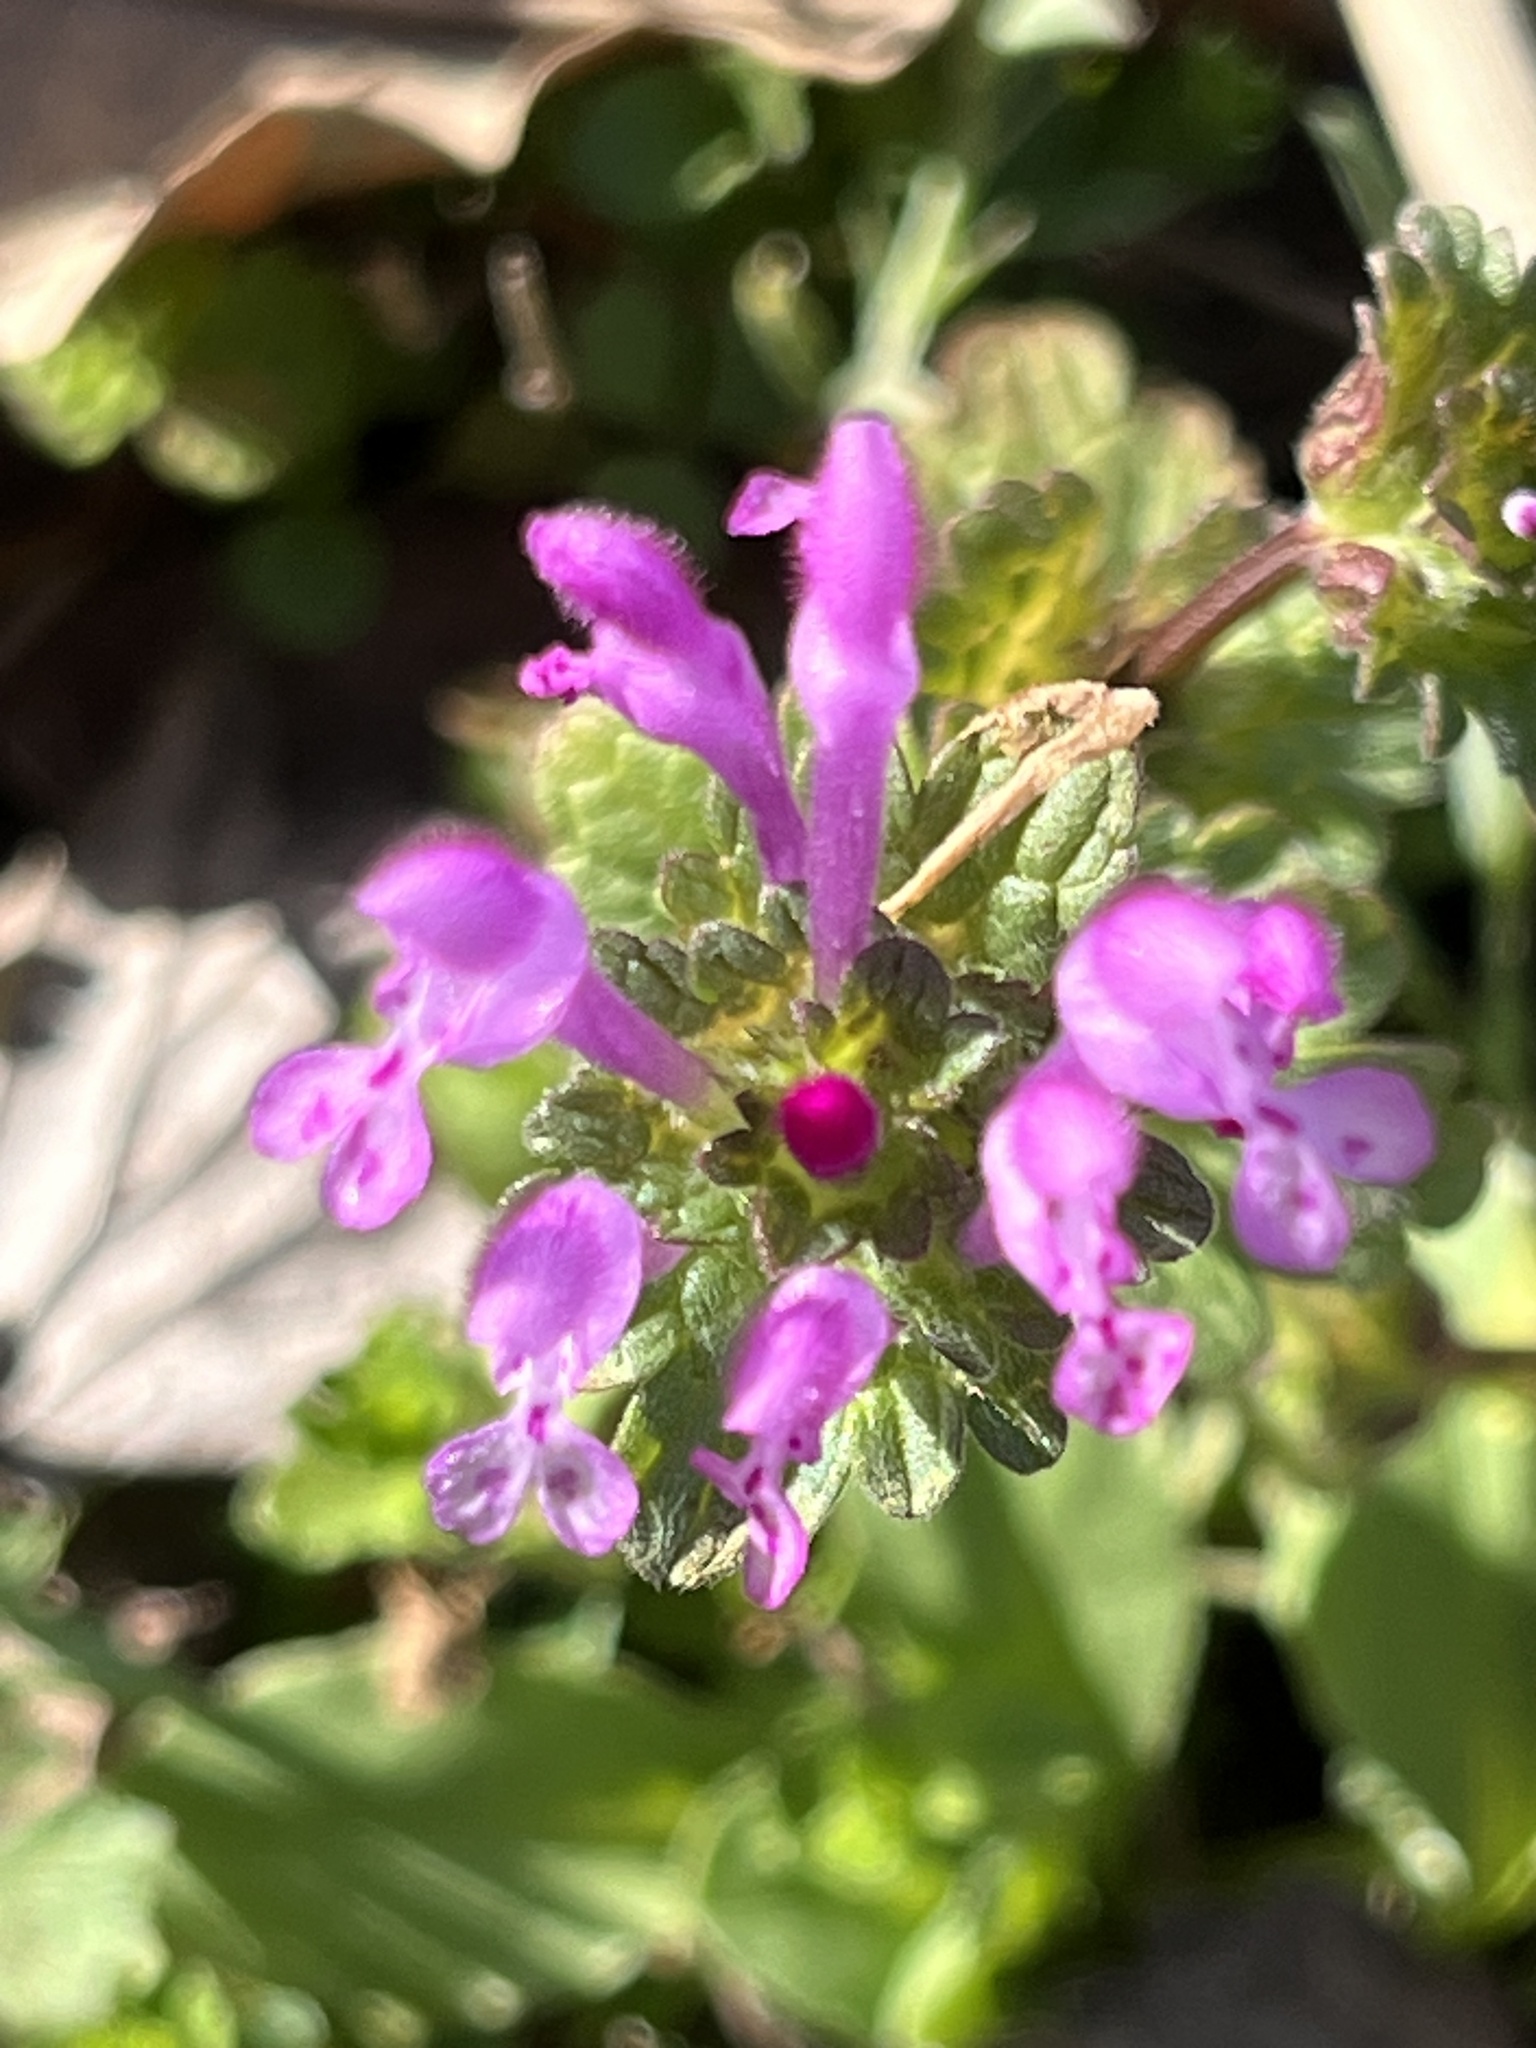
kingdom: Plantae
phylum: Tracheophyta
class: Magnoliopsida
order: Lamiales
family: Lamiaceae
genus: Lamium
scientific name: Lamium amplexicaule
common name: Henbit dead-nettle
